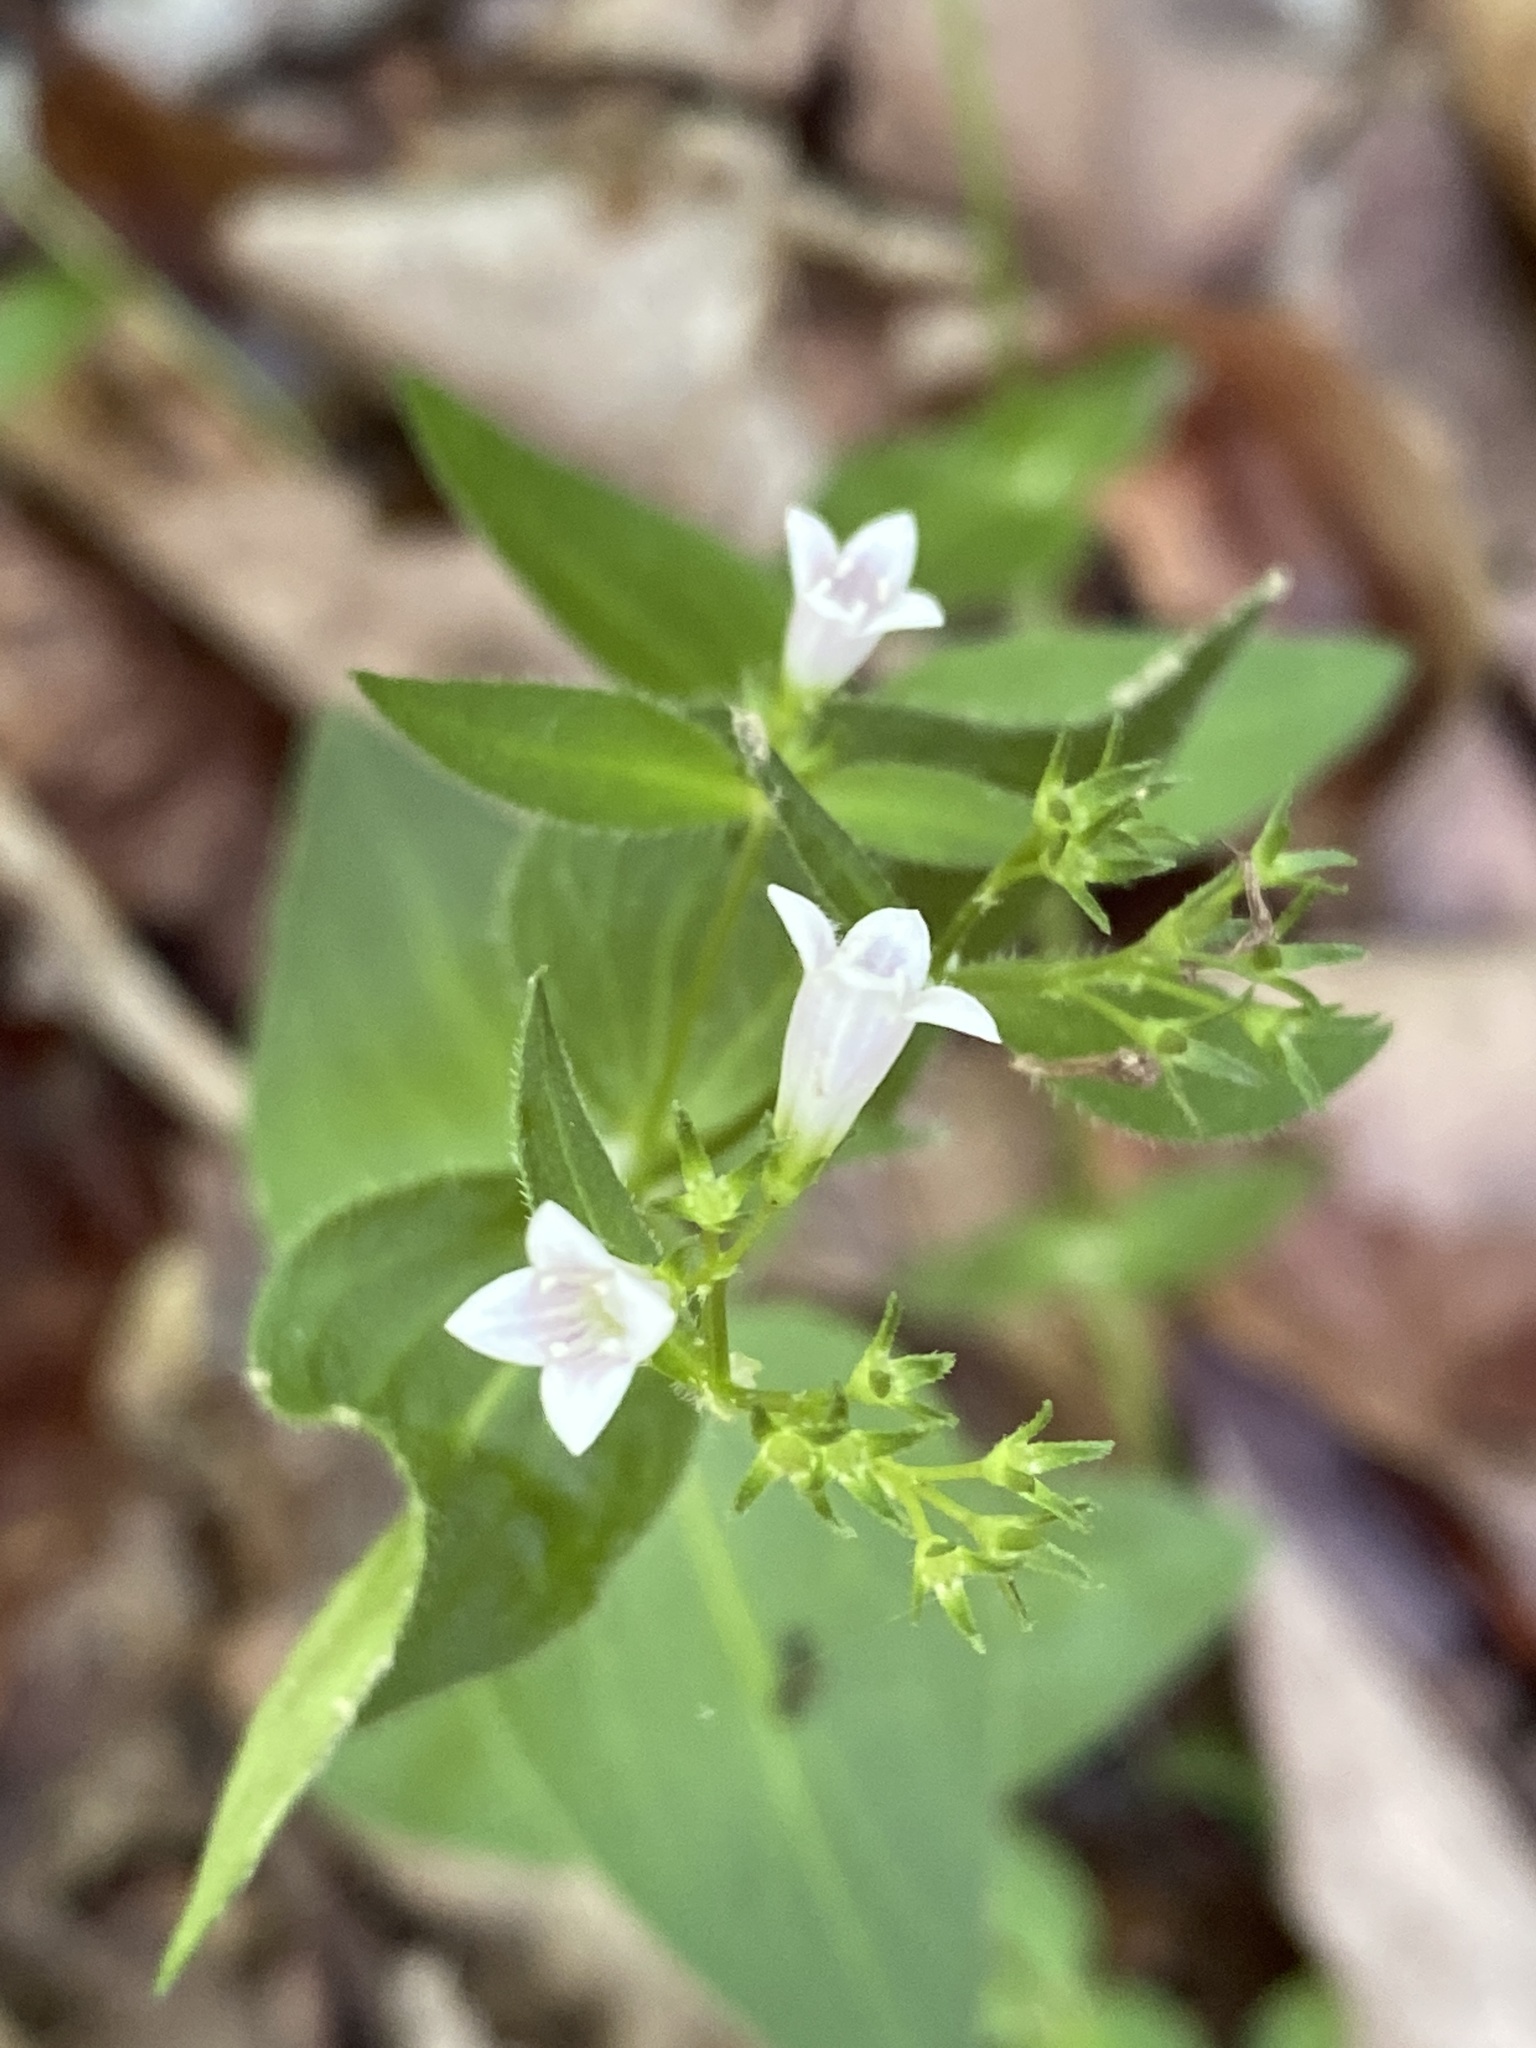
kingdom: Plantae
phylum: Tracheophyta
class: Magnoliopsida
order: Gentianales
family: Rubiaceae
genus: Houstonia
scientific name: Houstonia purpurea
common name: Summer bluet
